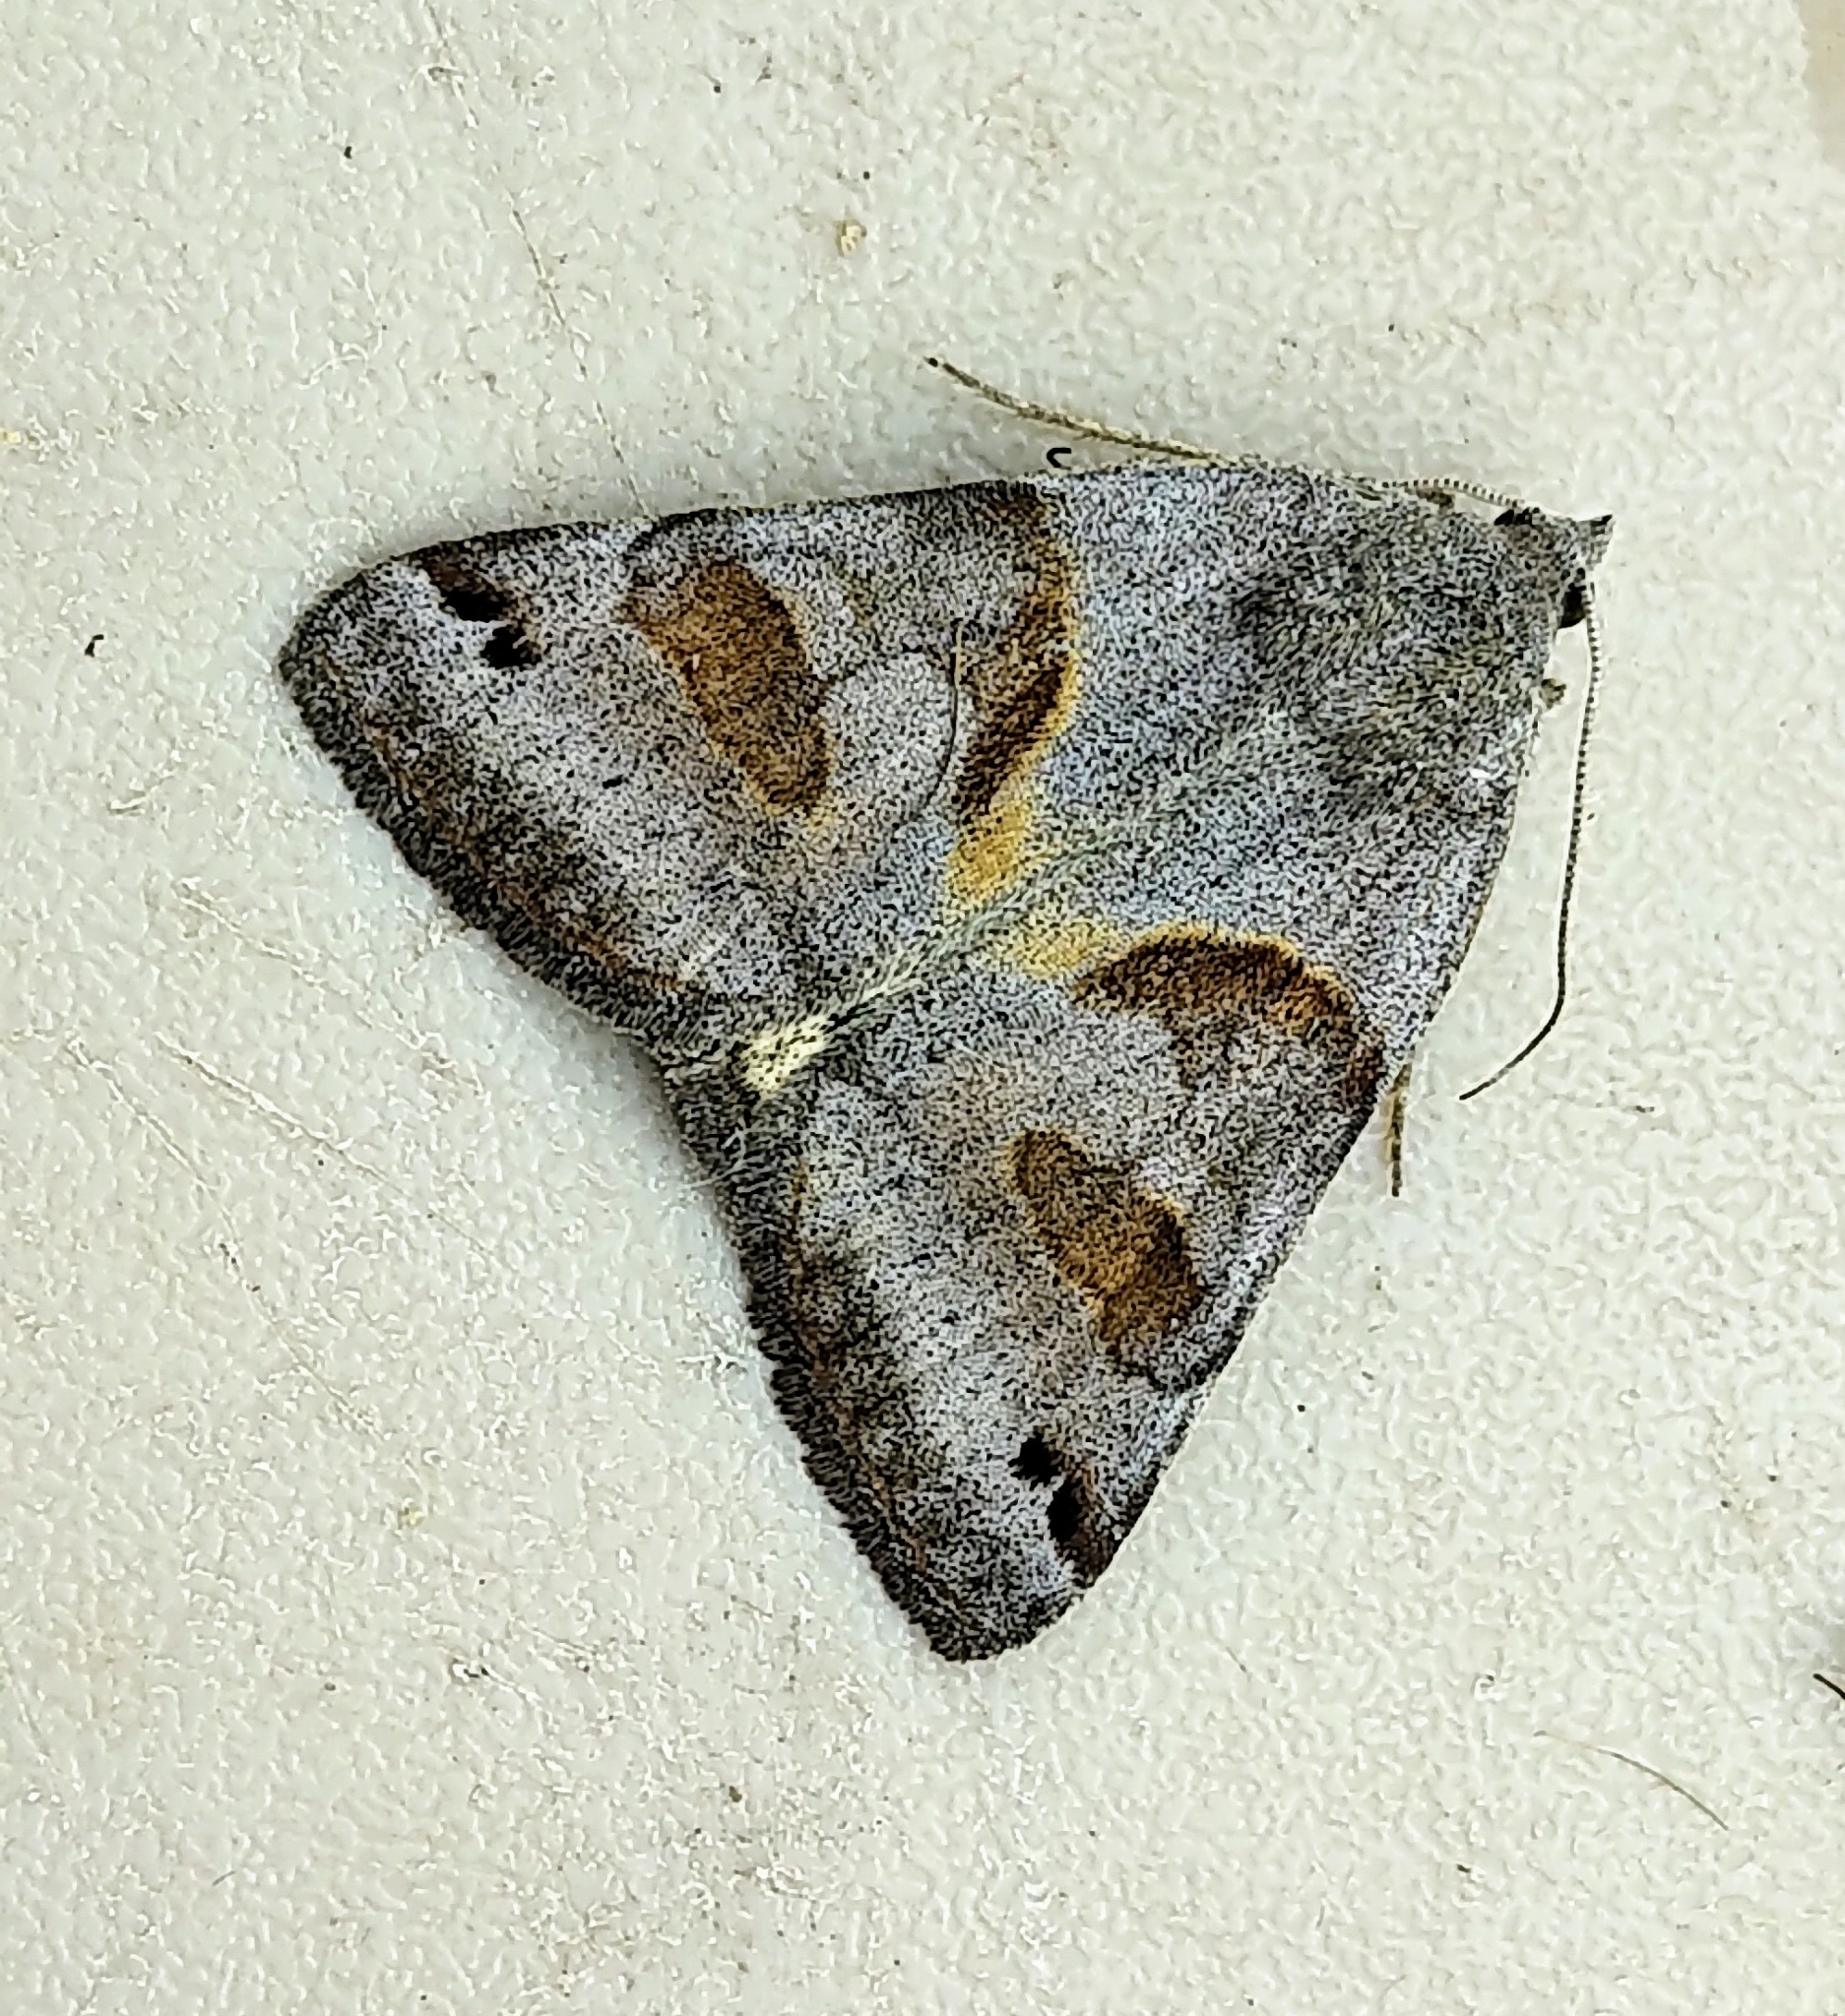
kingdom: Animalia
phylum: Arthropoda
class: Insecta
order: Lepidoptera
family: Erebidae
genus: Caenurgina
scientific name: Caenurgina erechtea
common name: Forage looper moth
